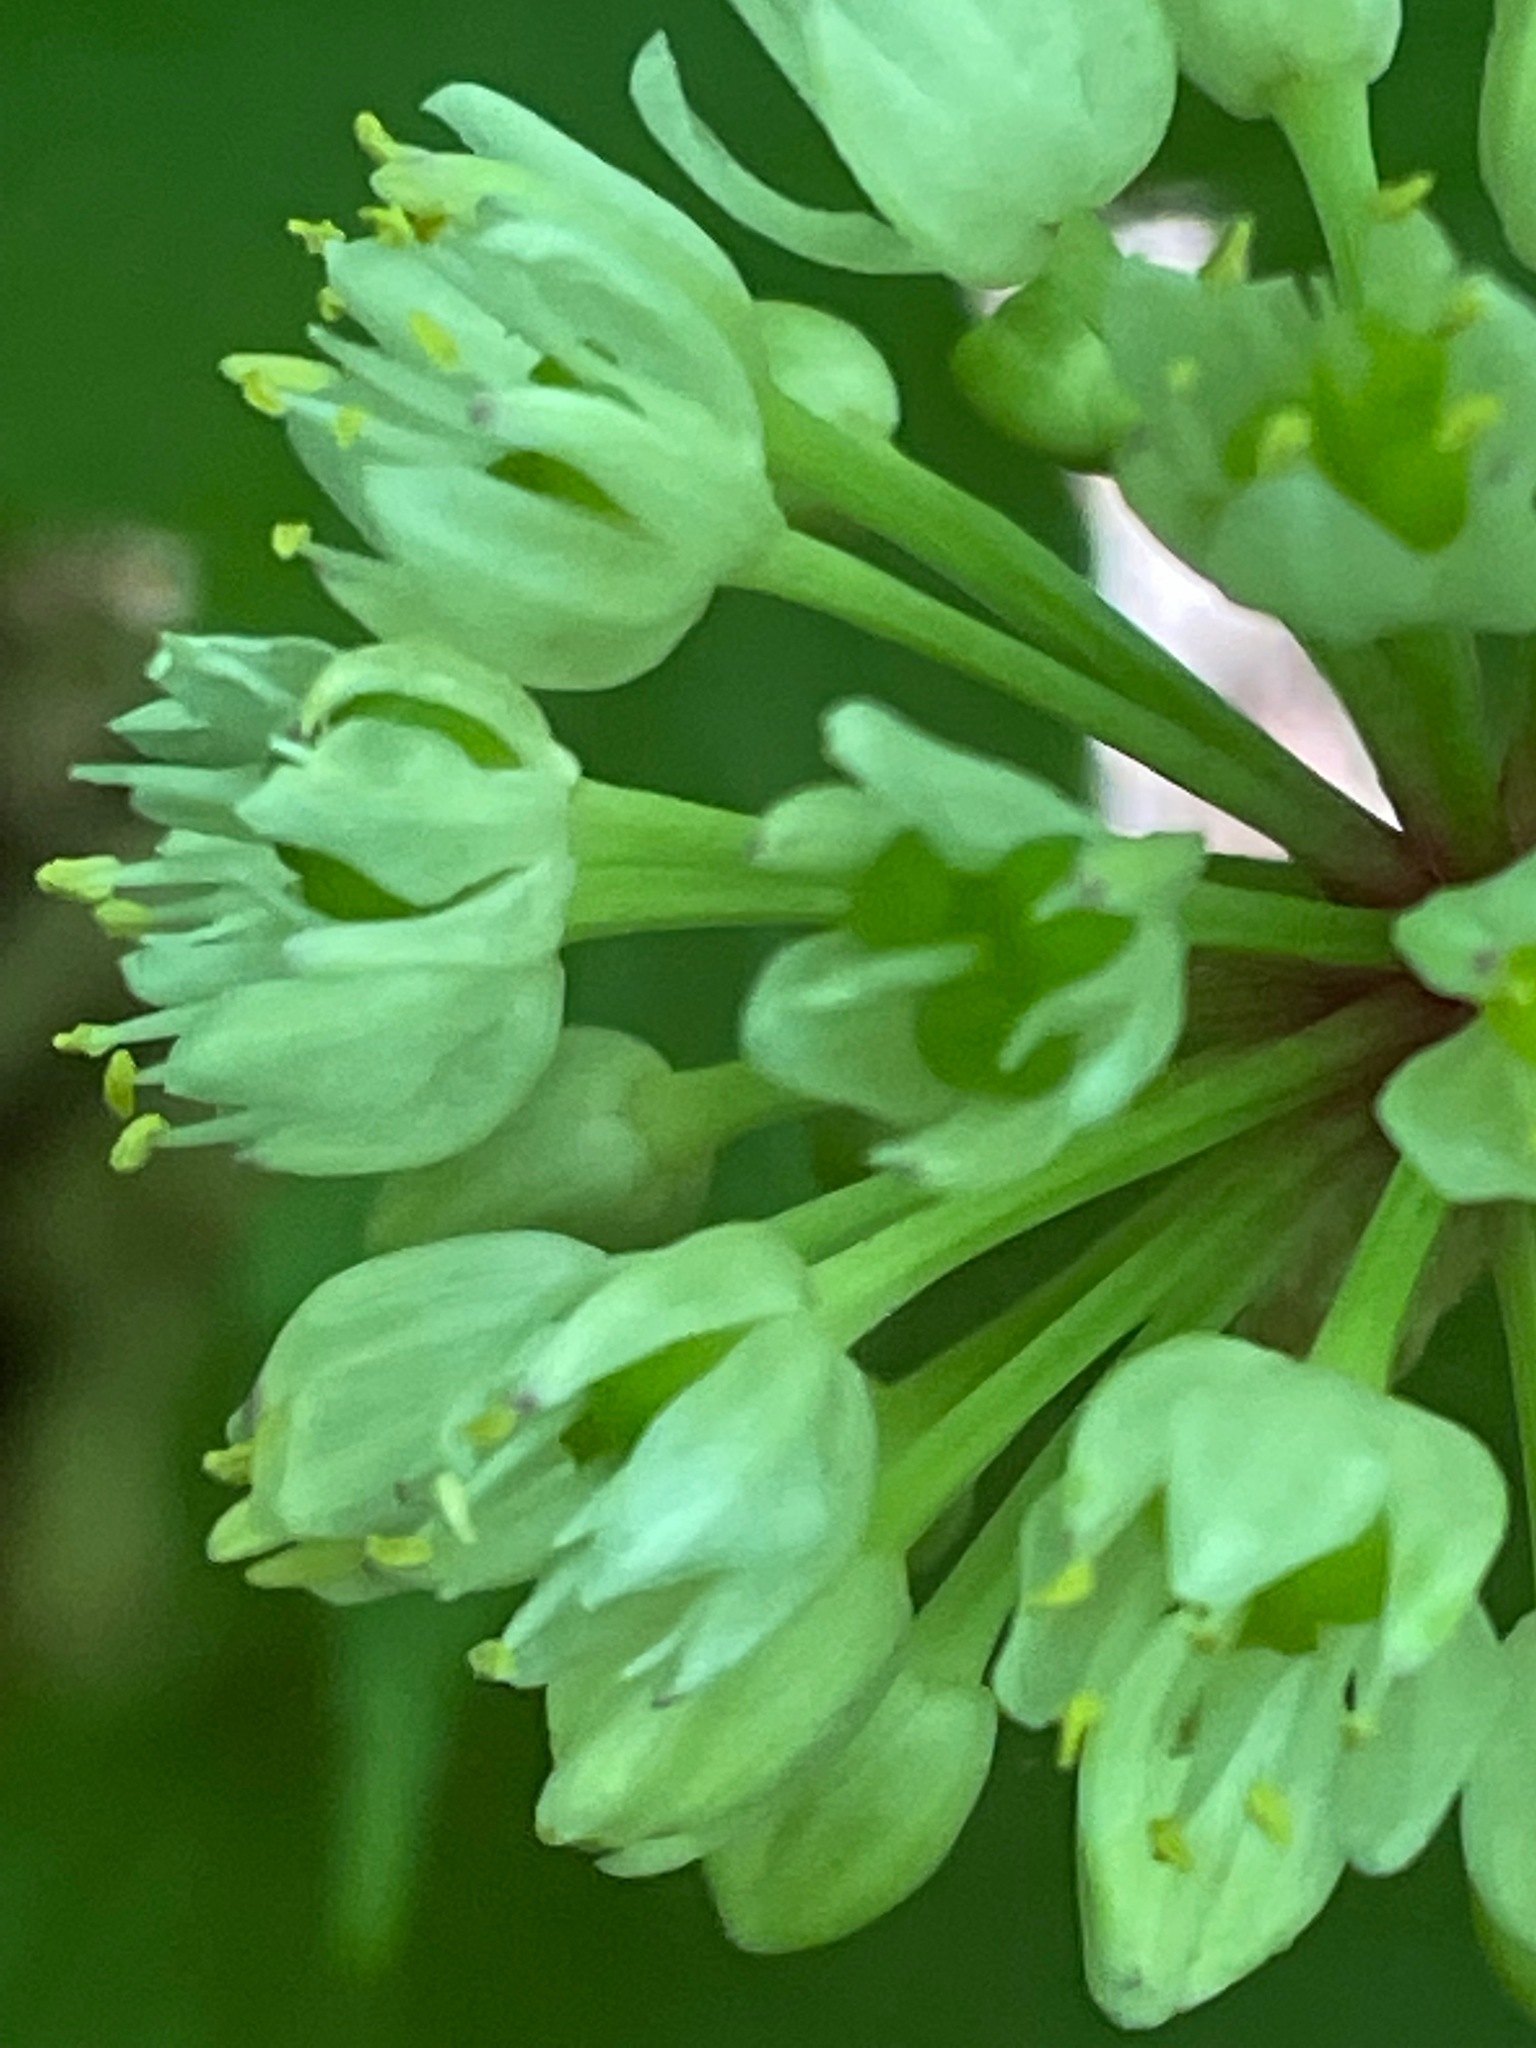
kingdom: Plantae
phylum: Tracheophyta
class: Liliopsida
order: Asparagales
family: Amaryllidaceae
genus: Allium
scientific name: Allium tricoccum
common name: Ramp
